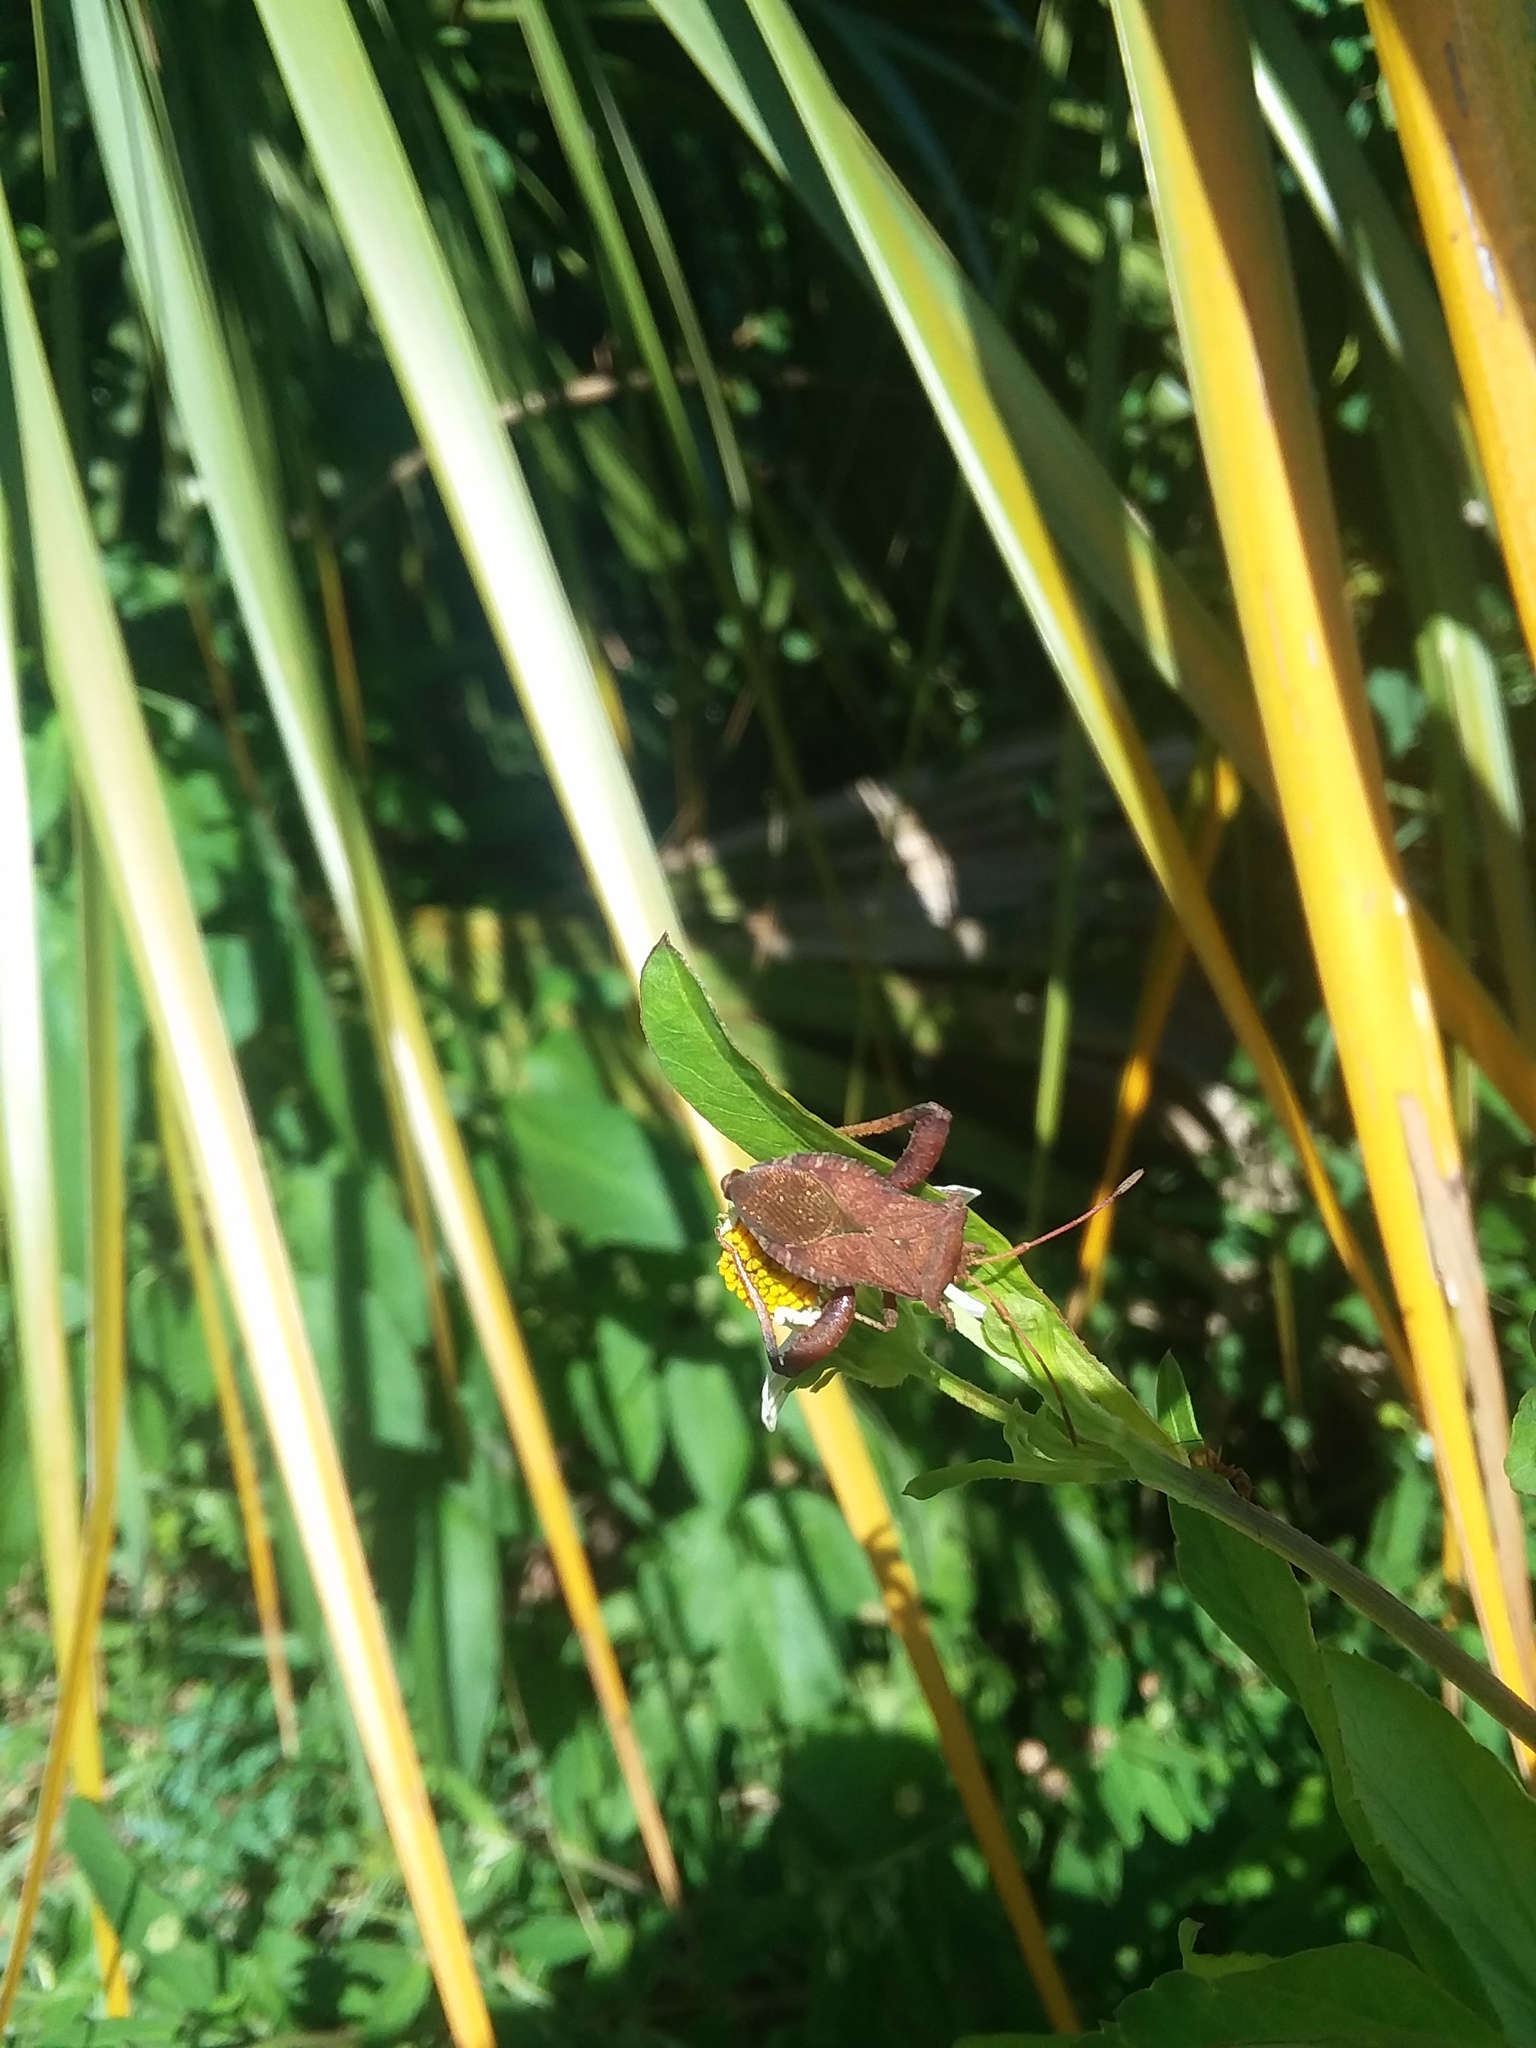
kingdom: Animalia
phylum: Arthropoda
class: Insecta
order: Hemiptera
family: Coreidae
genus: Euthochtha
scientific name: Euthochtha galeator
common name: Helmeted squash bug
